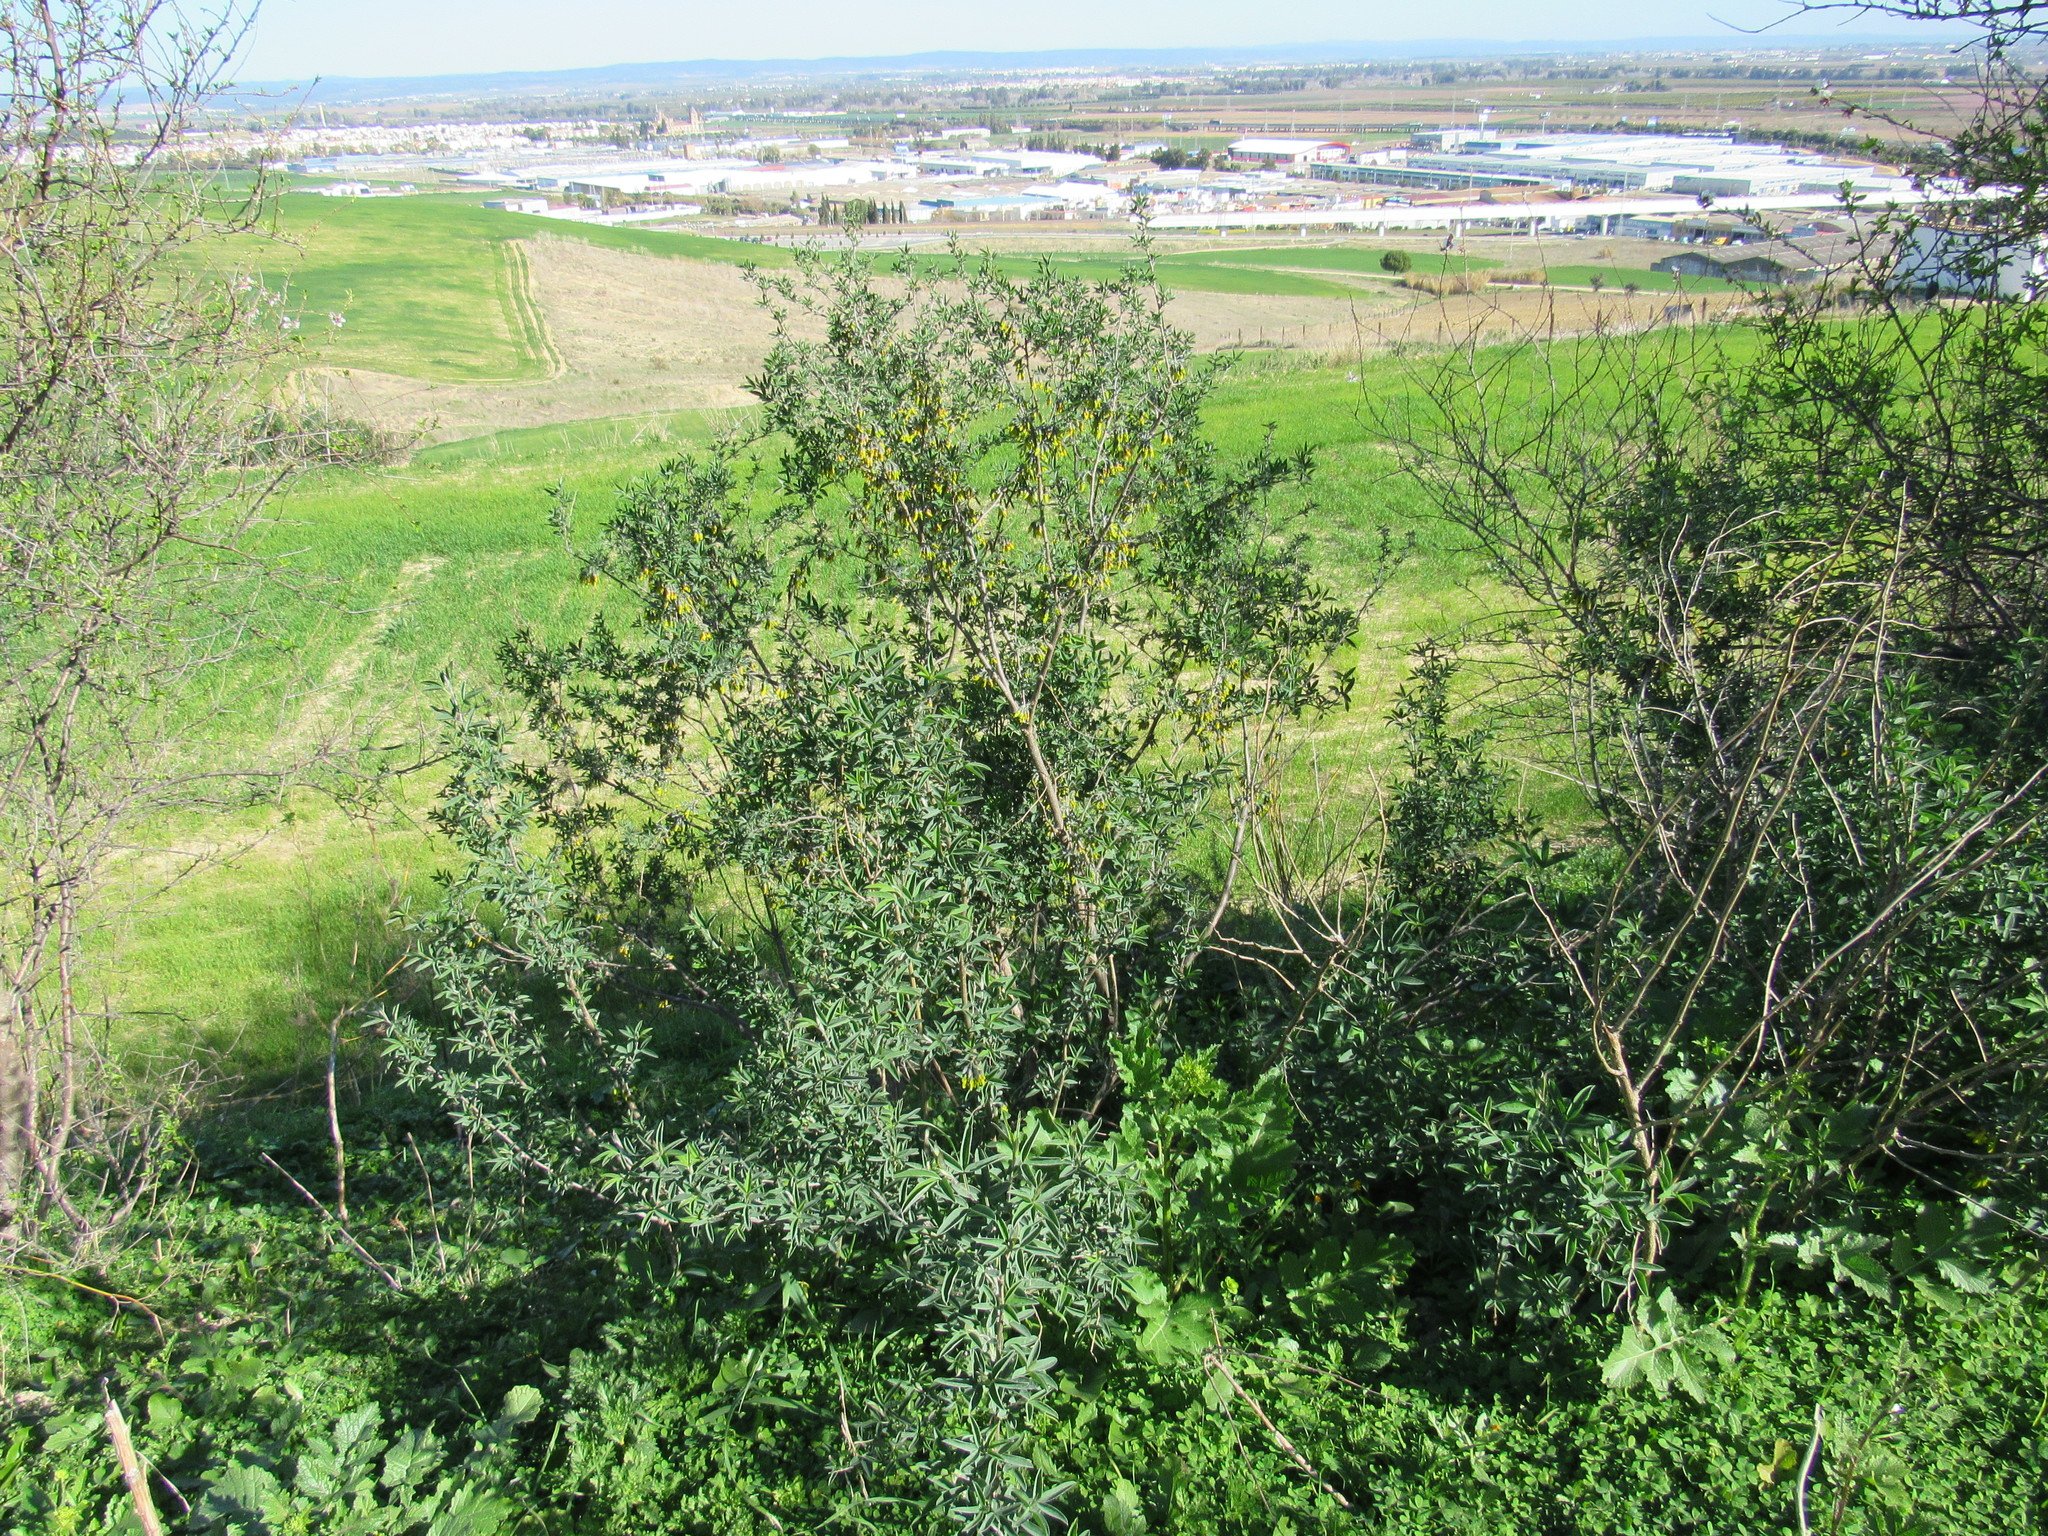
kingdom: Plantae
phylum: Tracheophyta
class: Magnoliopsida
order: Fabales
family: Fabaceae
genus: Anagyris
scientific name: Anagyris foetida
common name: Stinking bean trefoil
